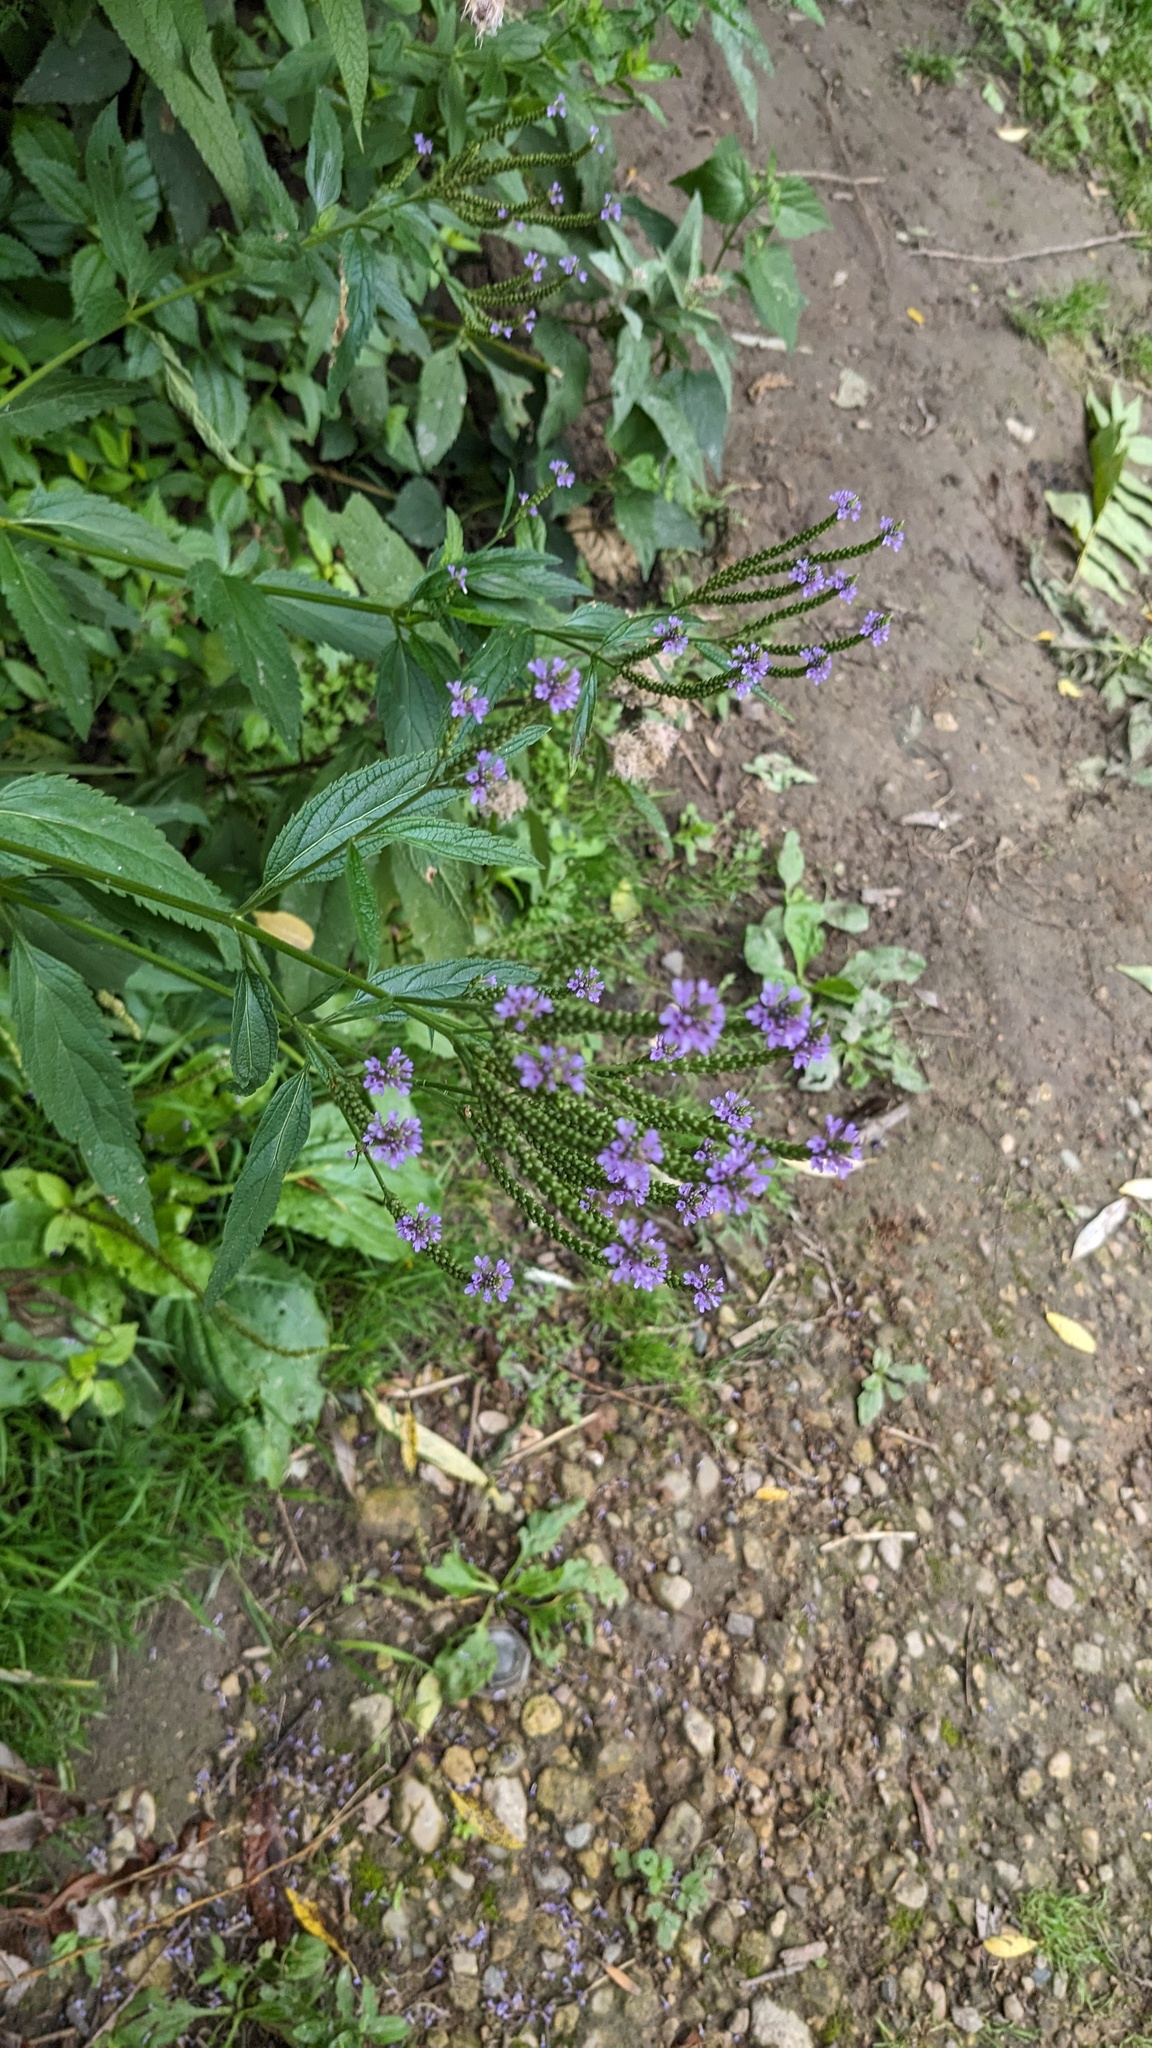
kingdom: Plantae
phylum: Tracheophyta
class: Magnoliopsida
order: Lamiales
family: Verbenaceae
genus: Verbena
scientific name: Verbena hastata
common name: American blue vervain
